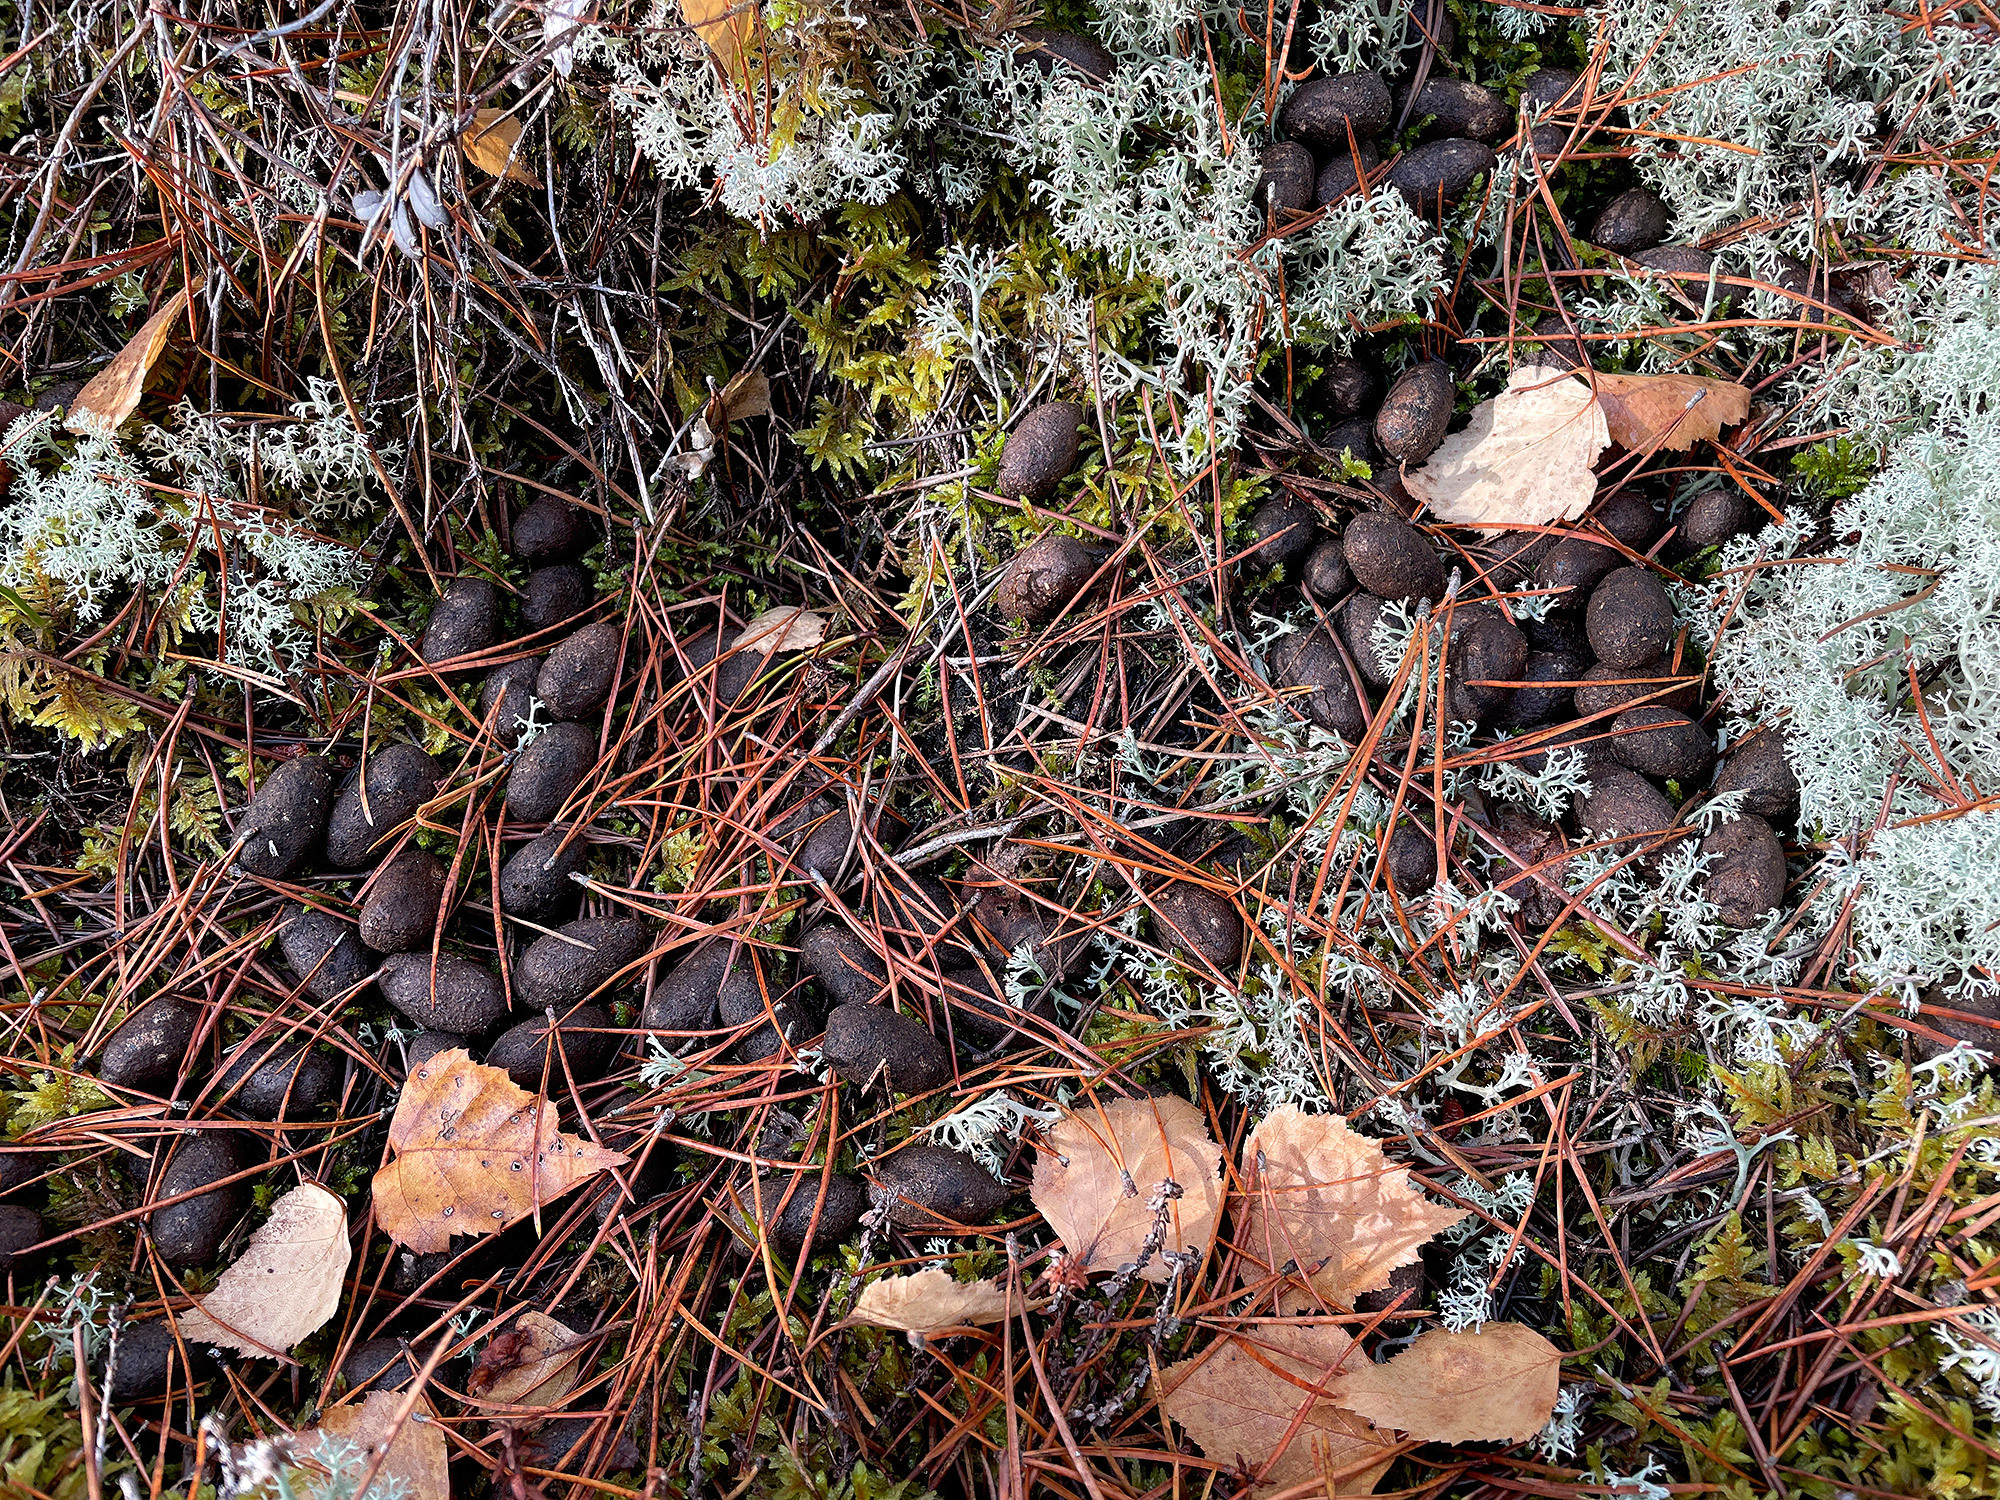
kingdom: Animalia
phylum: Chordata
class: Mammalia
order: Artiodactyla
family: Cervidae
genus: Alces
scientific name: Alces alces
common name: Moose
